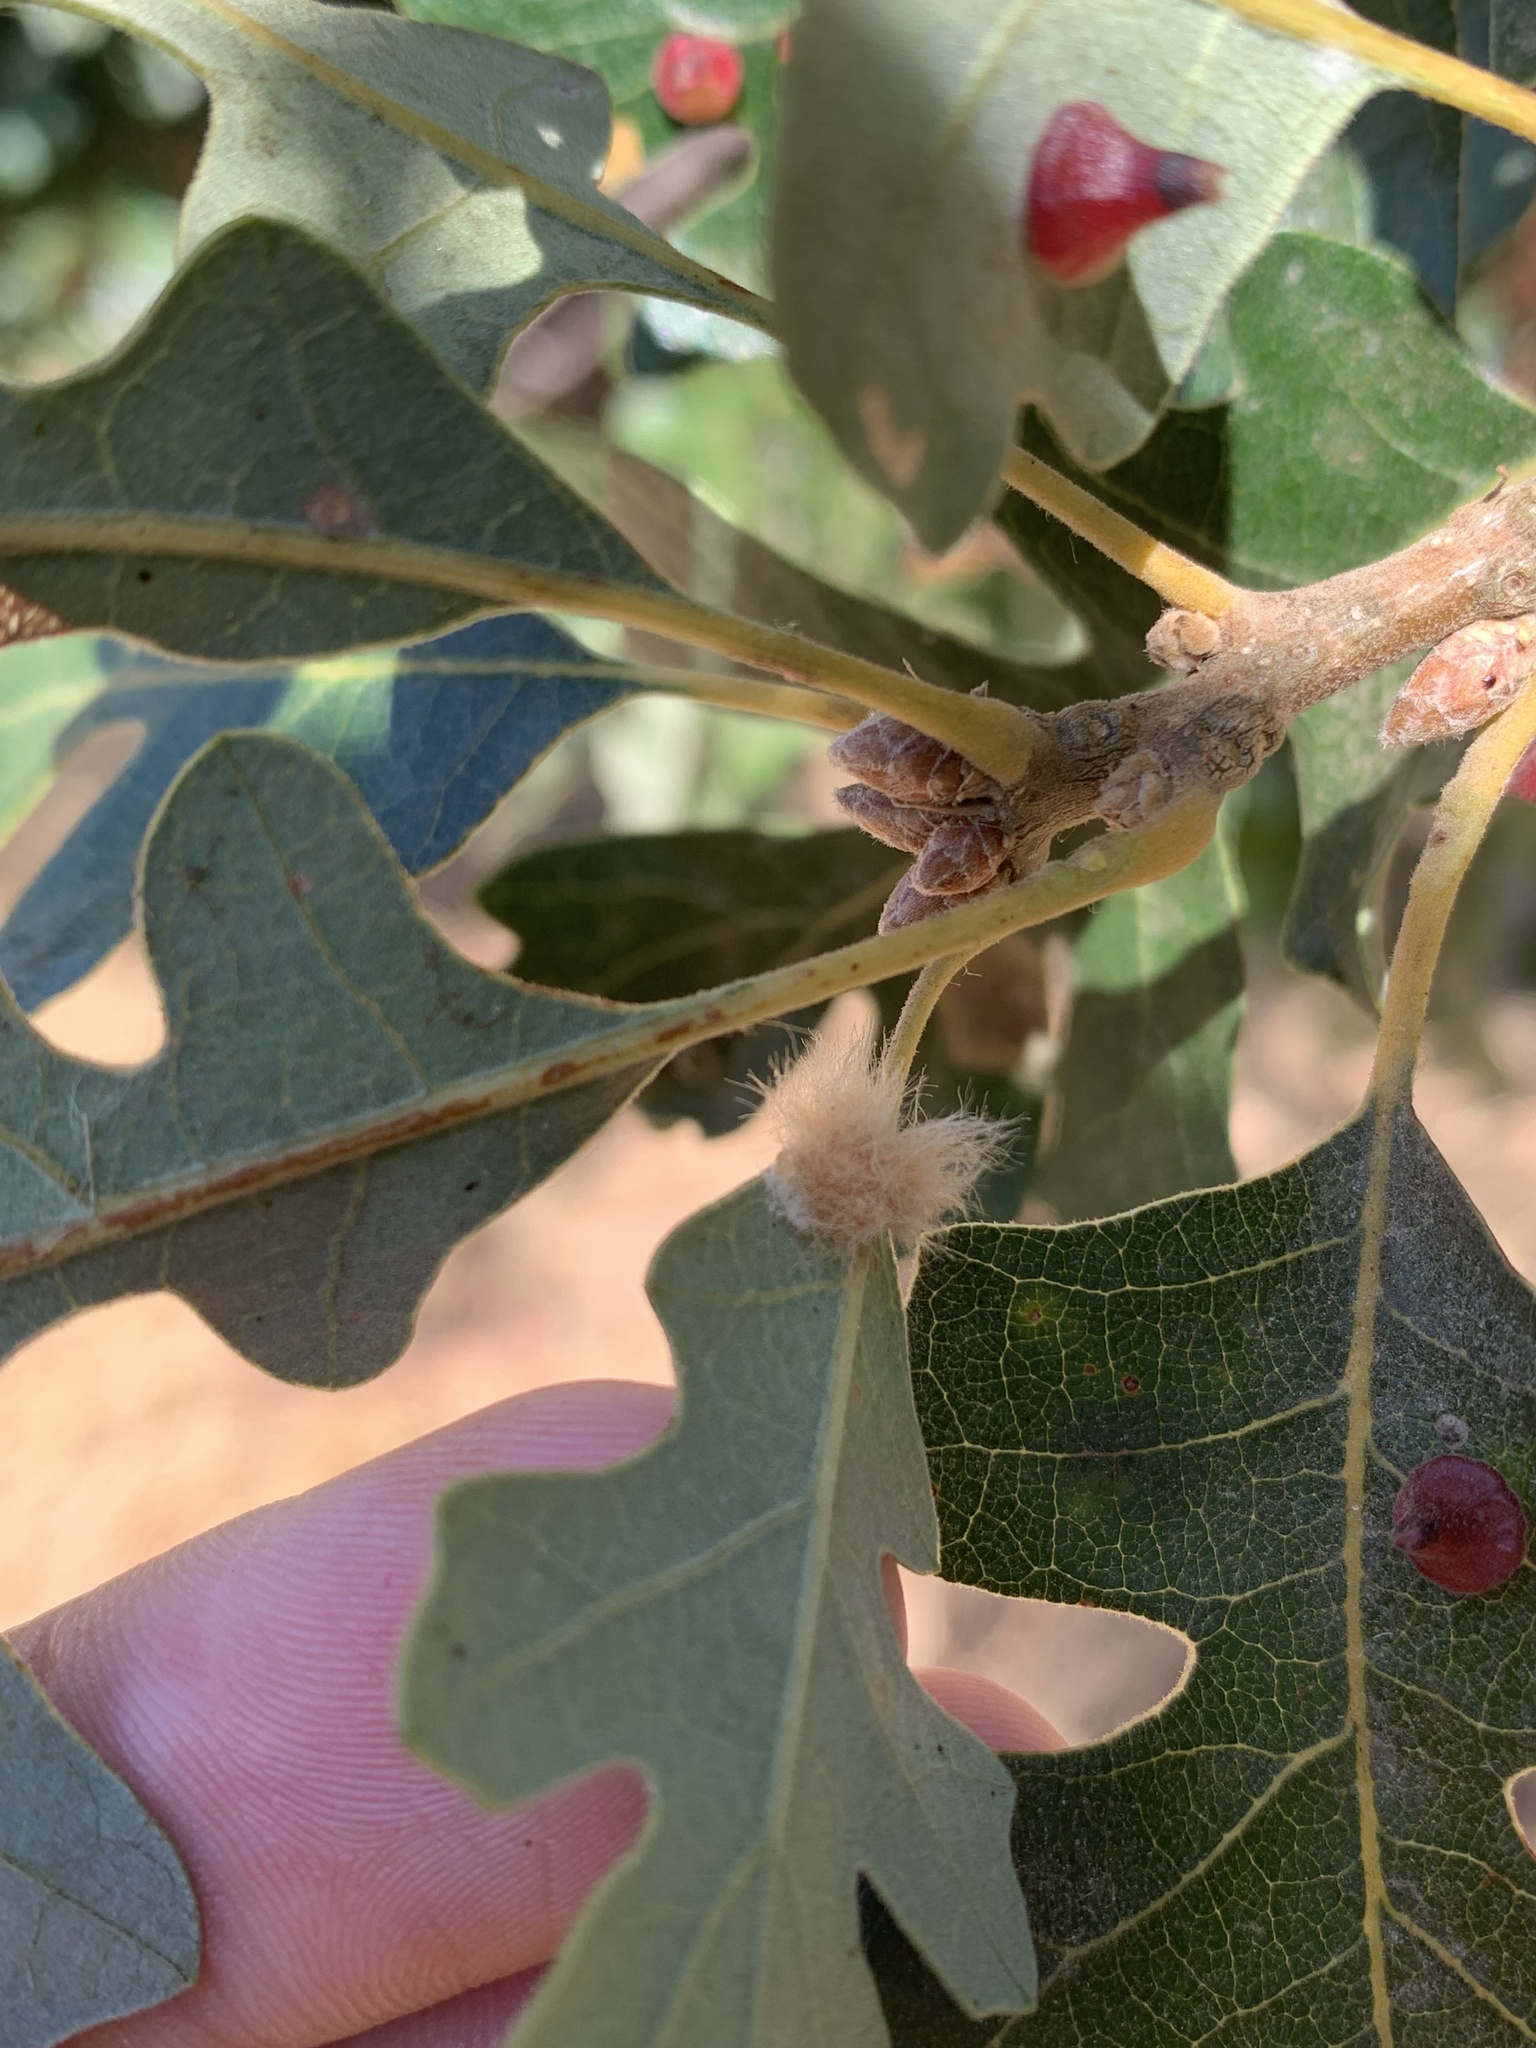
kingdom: Animalia
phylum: Arthropoda
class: Insecta
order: Hymenoptera
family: Cynipidae
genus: Andricus
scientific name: Andricus Druon fullawayi
